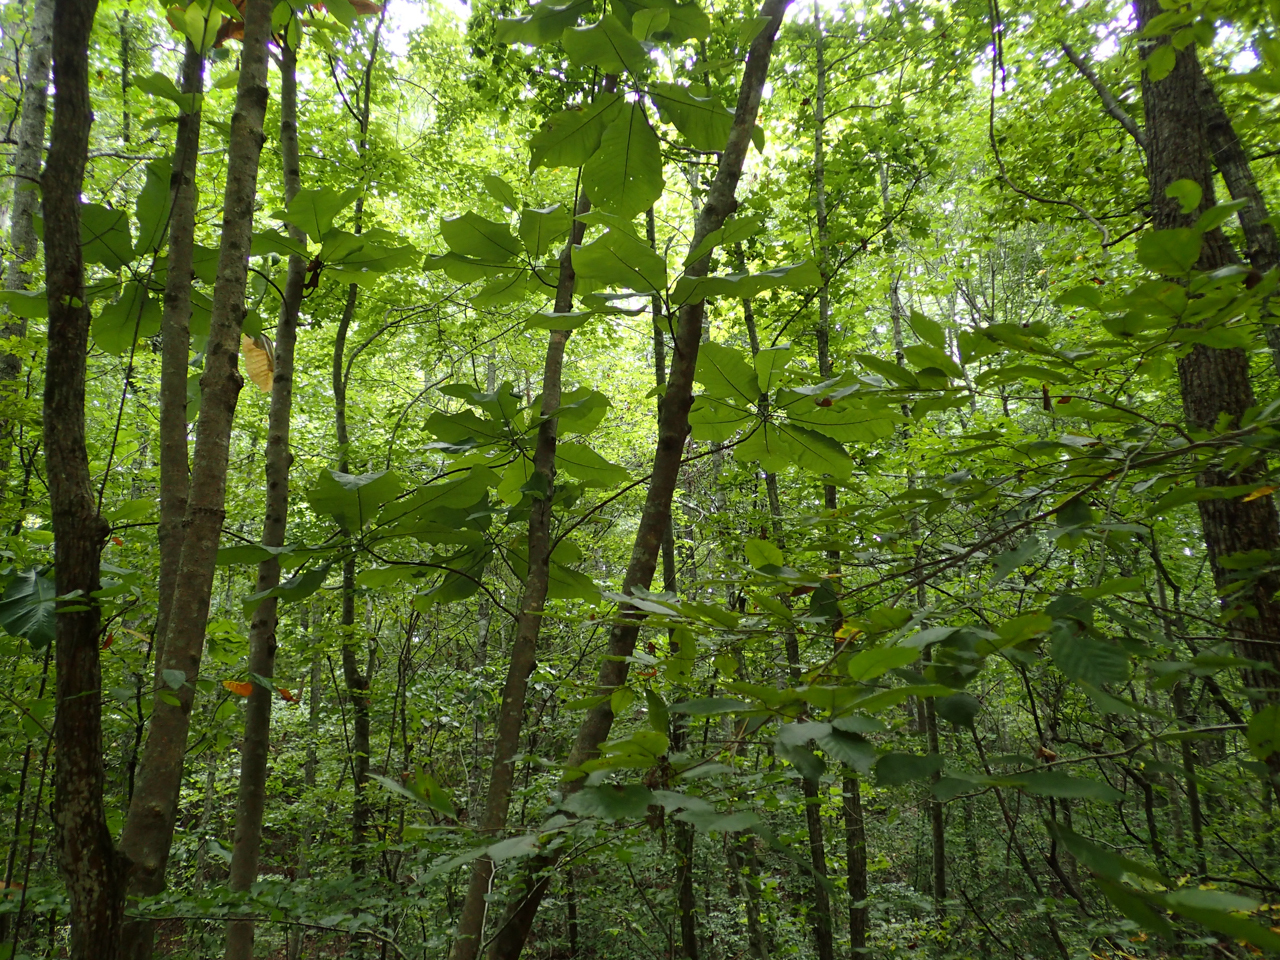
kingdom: Plantae
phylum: Tracheophyta
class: Magnoliopsida
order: Magnoliales
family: Magnoliaceae
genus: Magnolia
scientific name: Magnolia macrophylla
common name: Big-leaf magnolia
